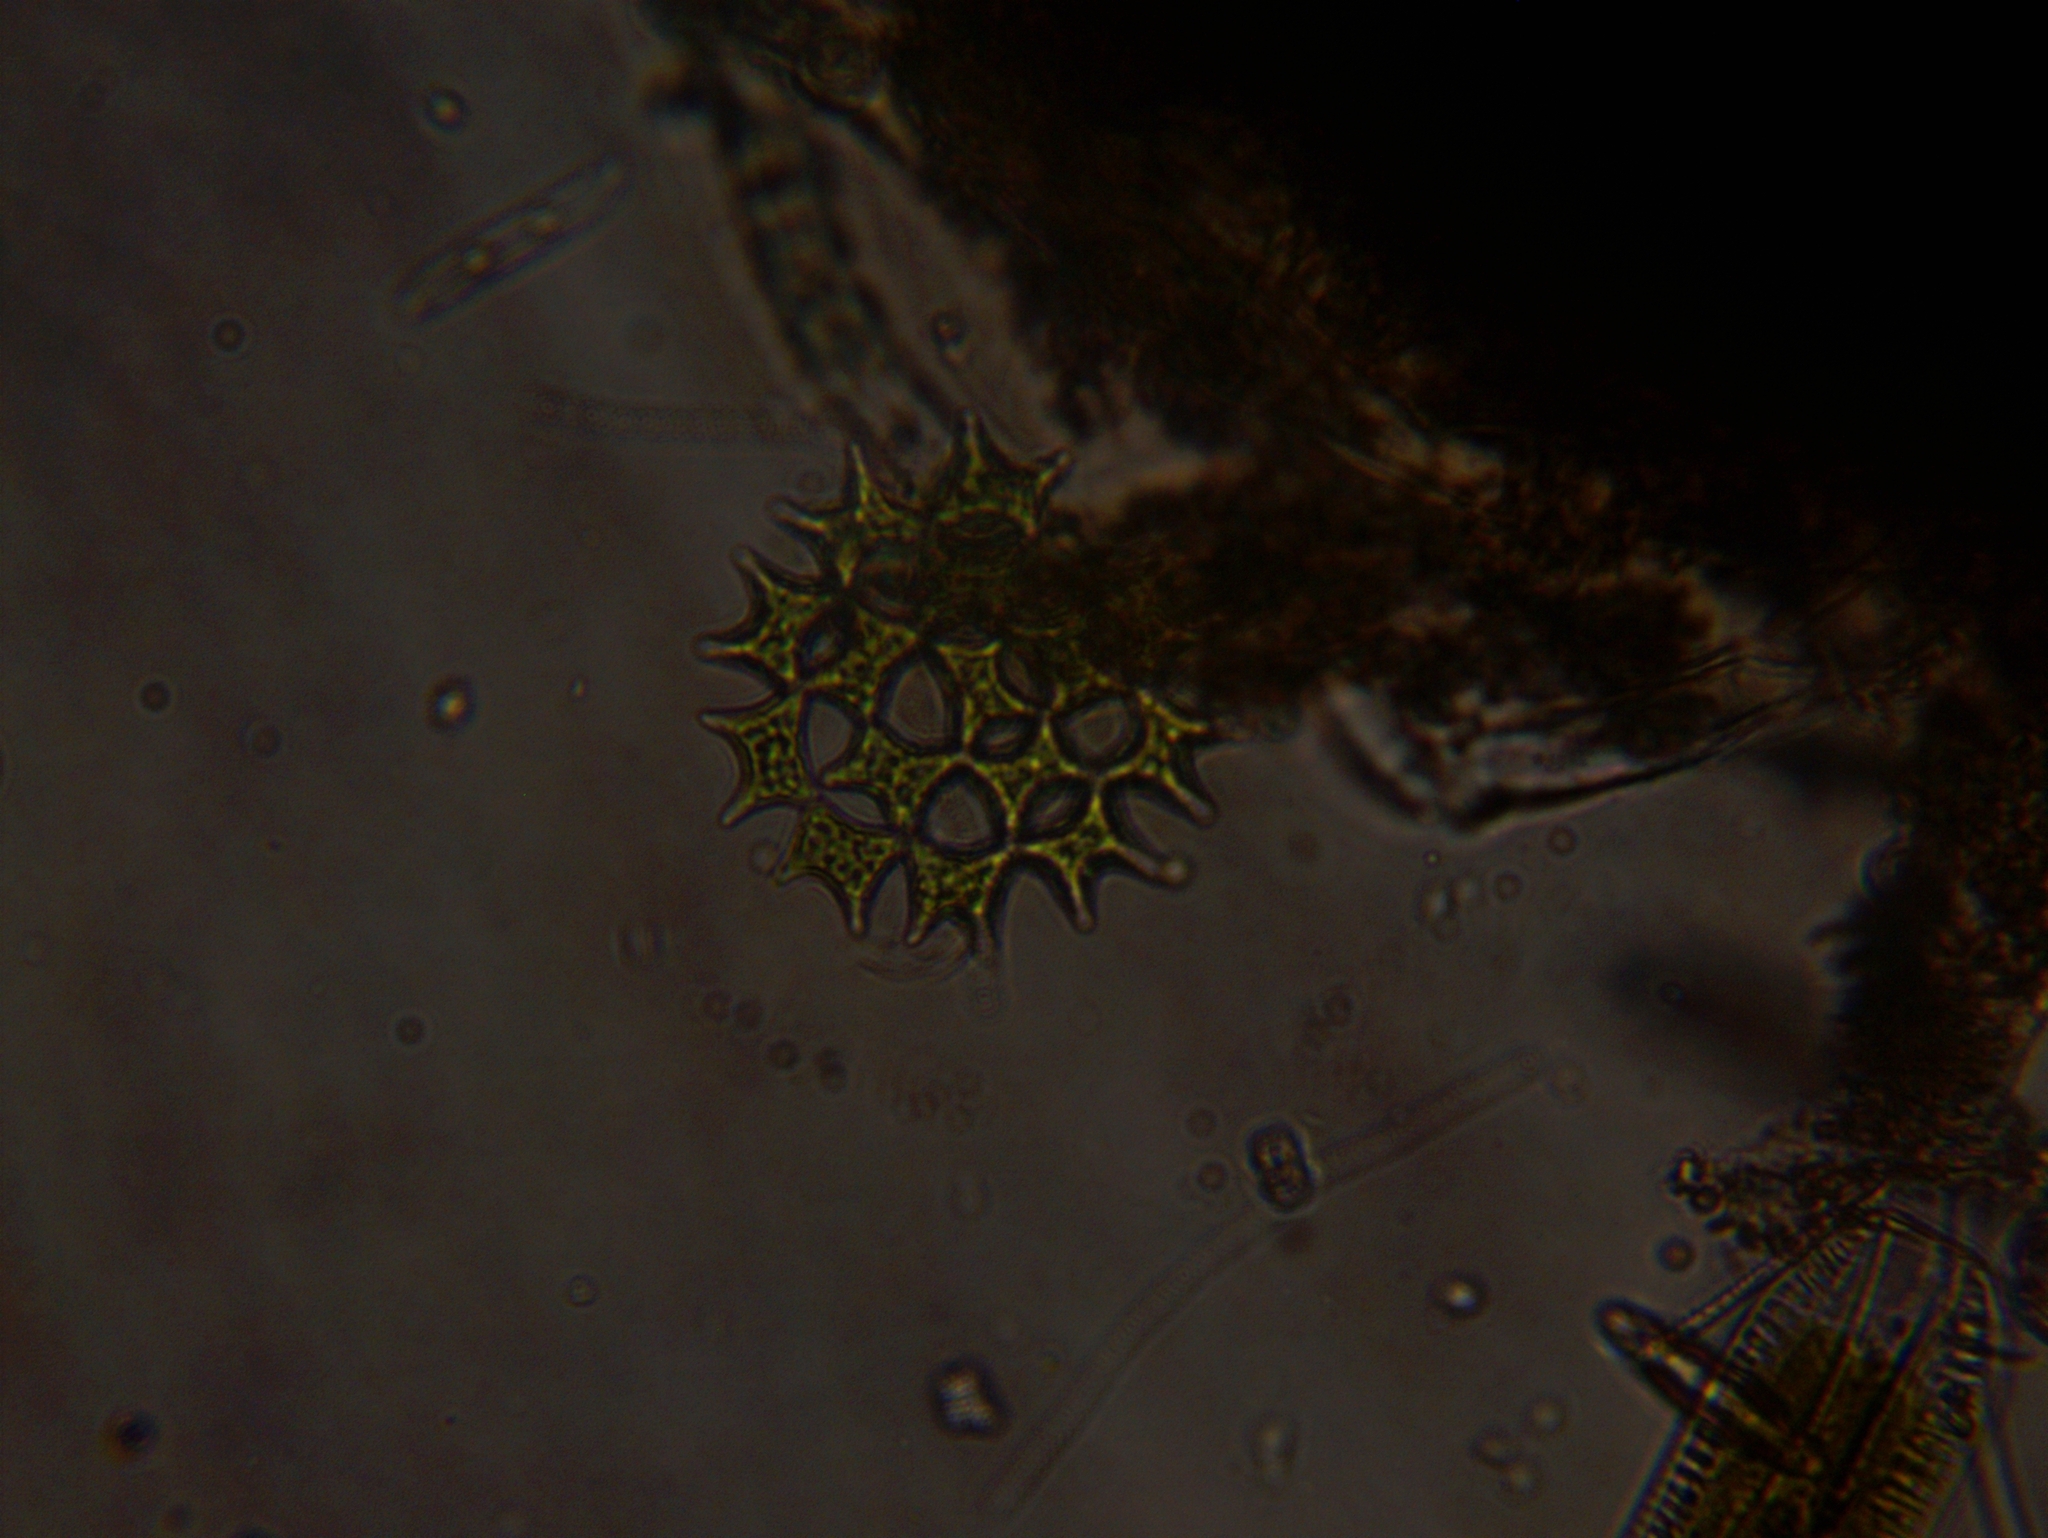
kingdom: Plantae
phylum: Chlorophyta
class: Chlorophyceae
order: Sphaeropleales
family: Hydrodictyaceae
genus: Pediastrum
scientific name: Pediastrum duplex
